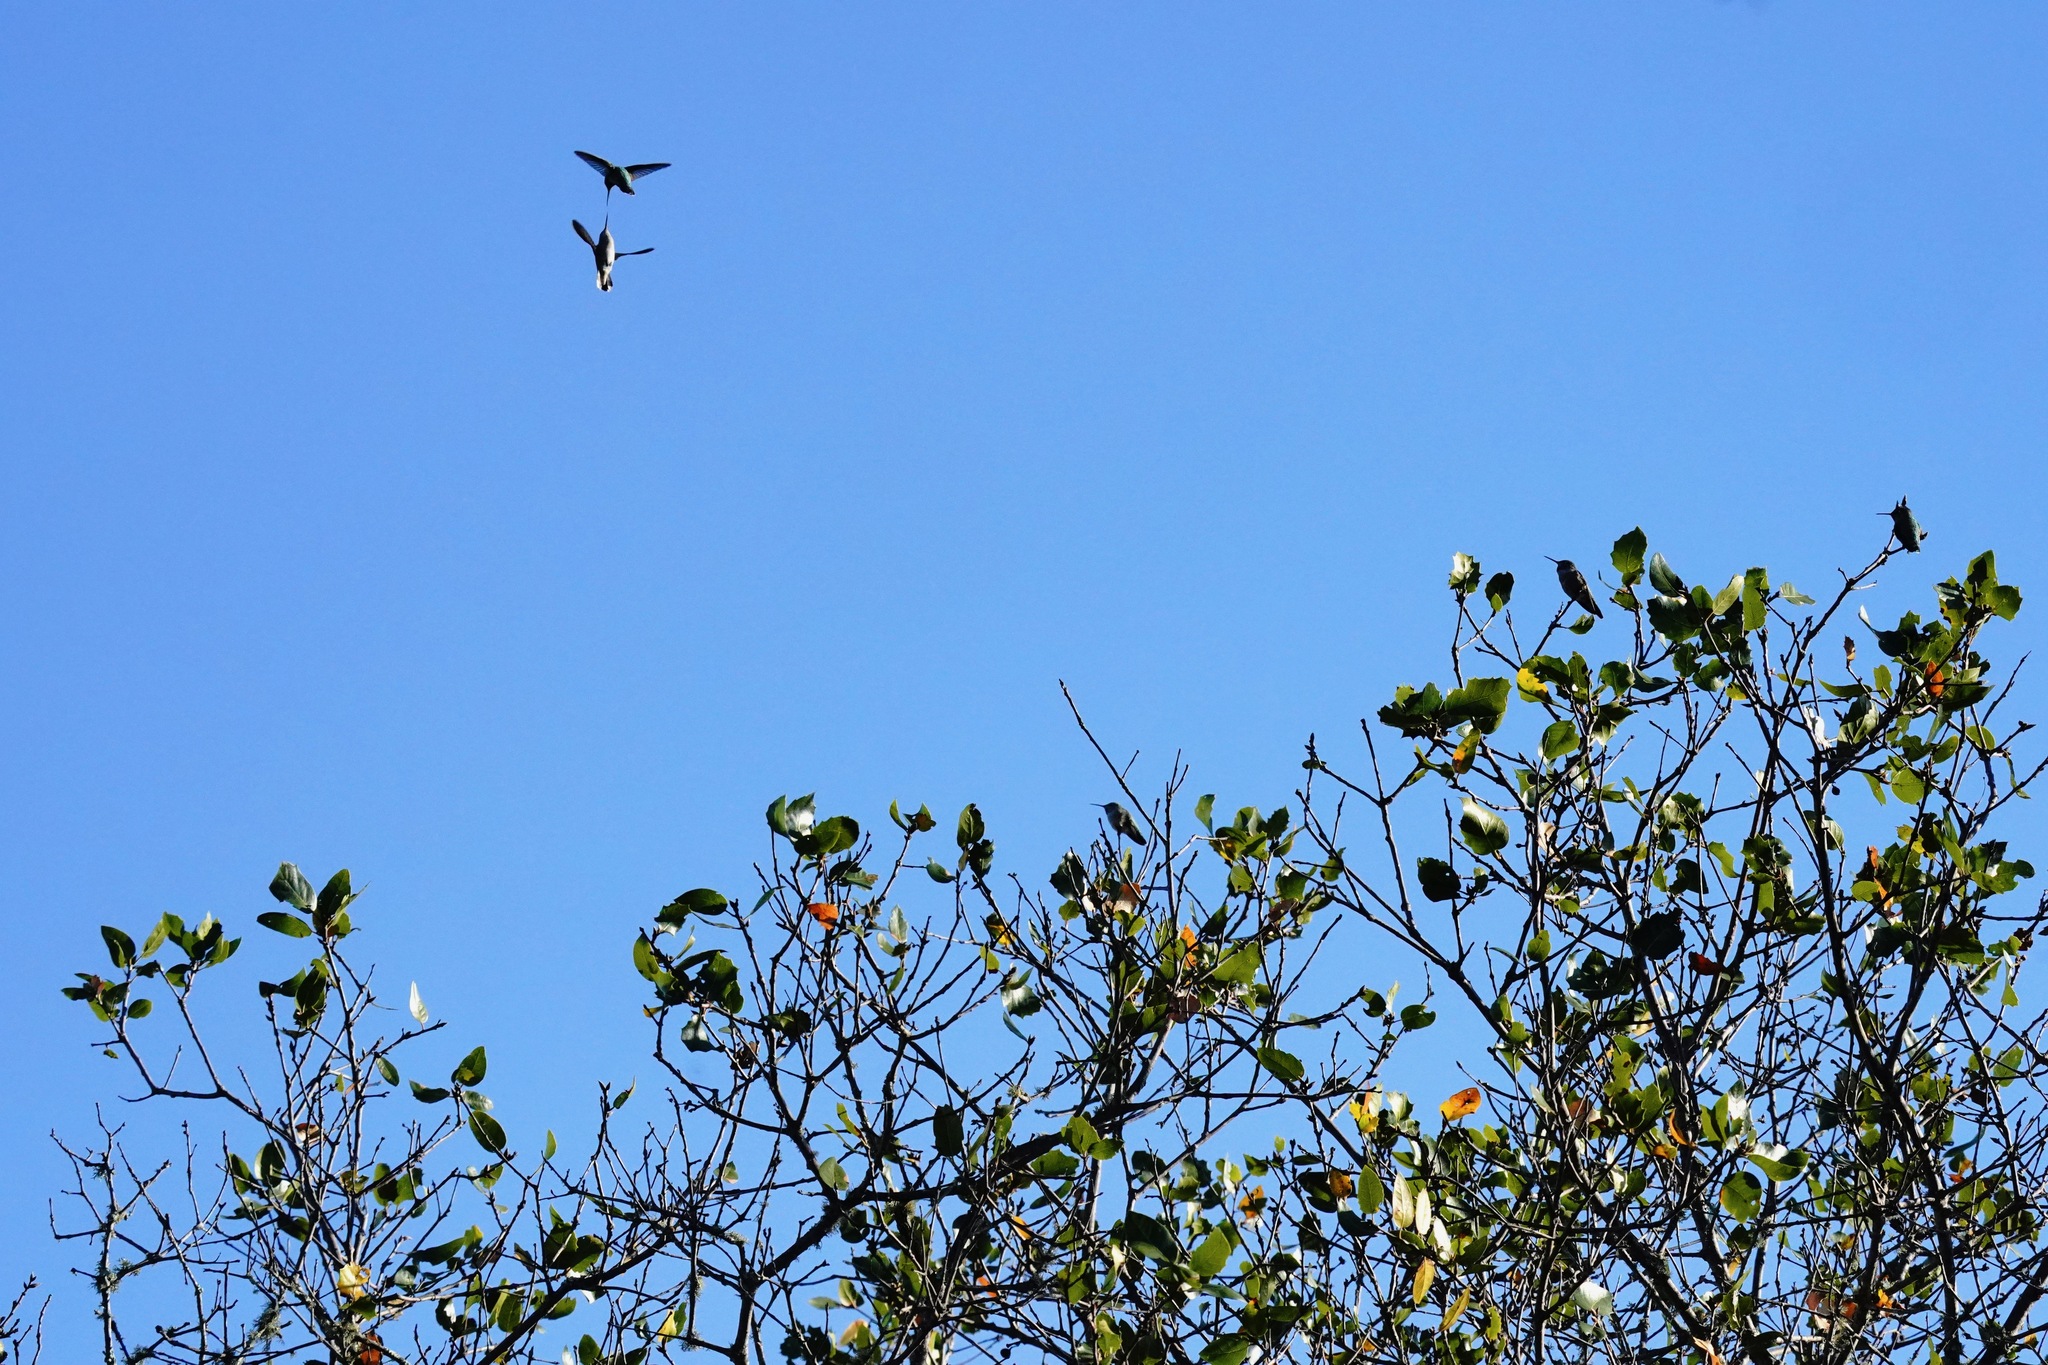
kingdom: Animalia
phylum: Chordata
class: Aves
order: Apodiformes
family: Trochilidae
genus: Calypte
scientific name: Calypte anna
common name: Anna's hummingbird
